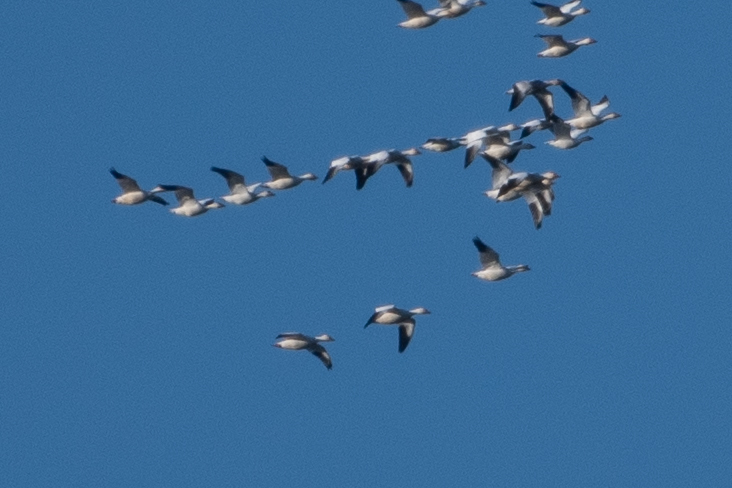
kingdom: Animalia
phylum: Chordata
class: Aves
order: Anseriformes
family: Anatidae
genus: Anser
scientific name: Anser caerulescens
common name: Snow goose
